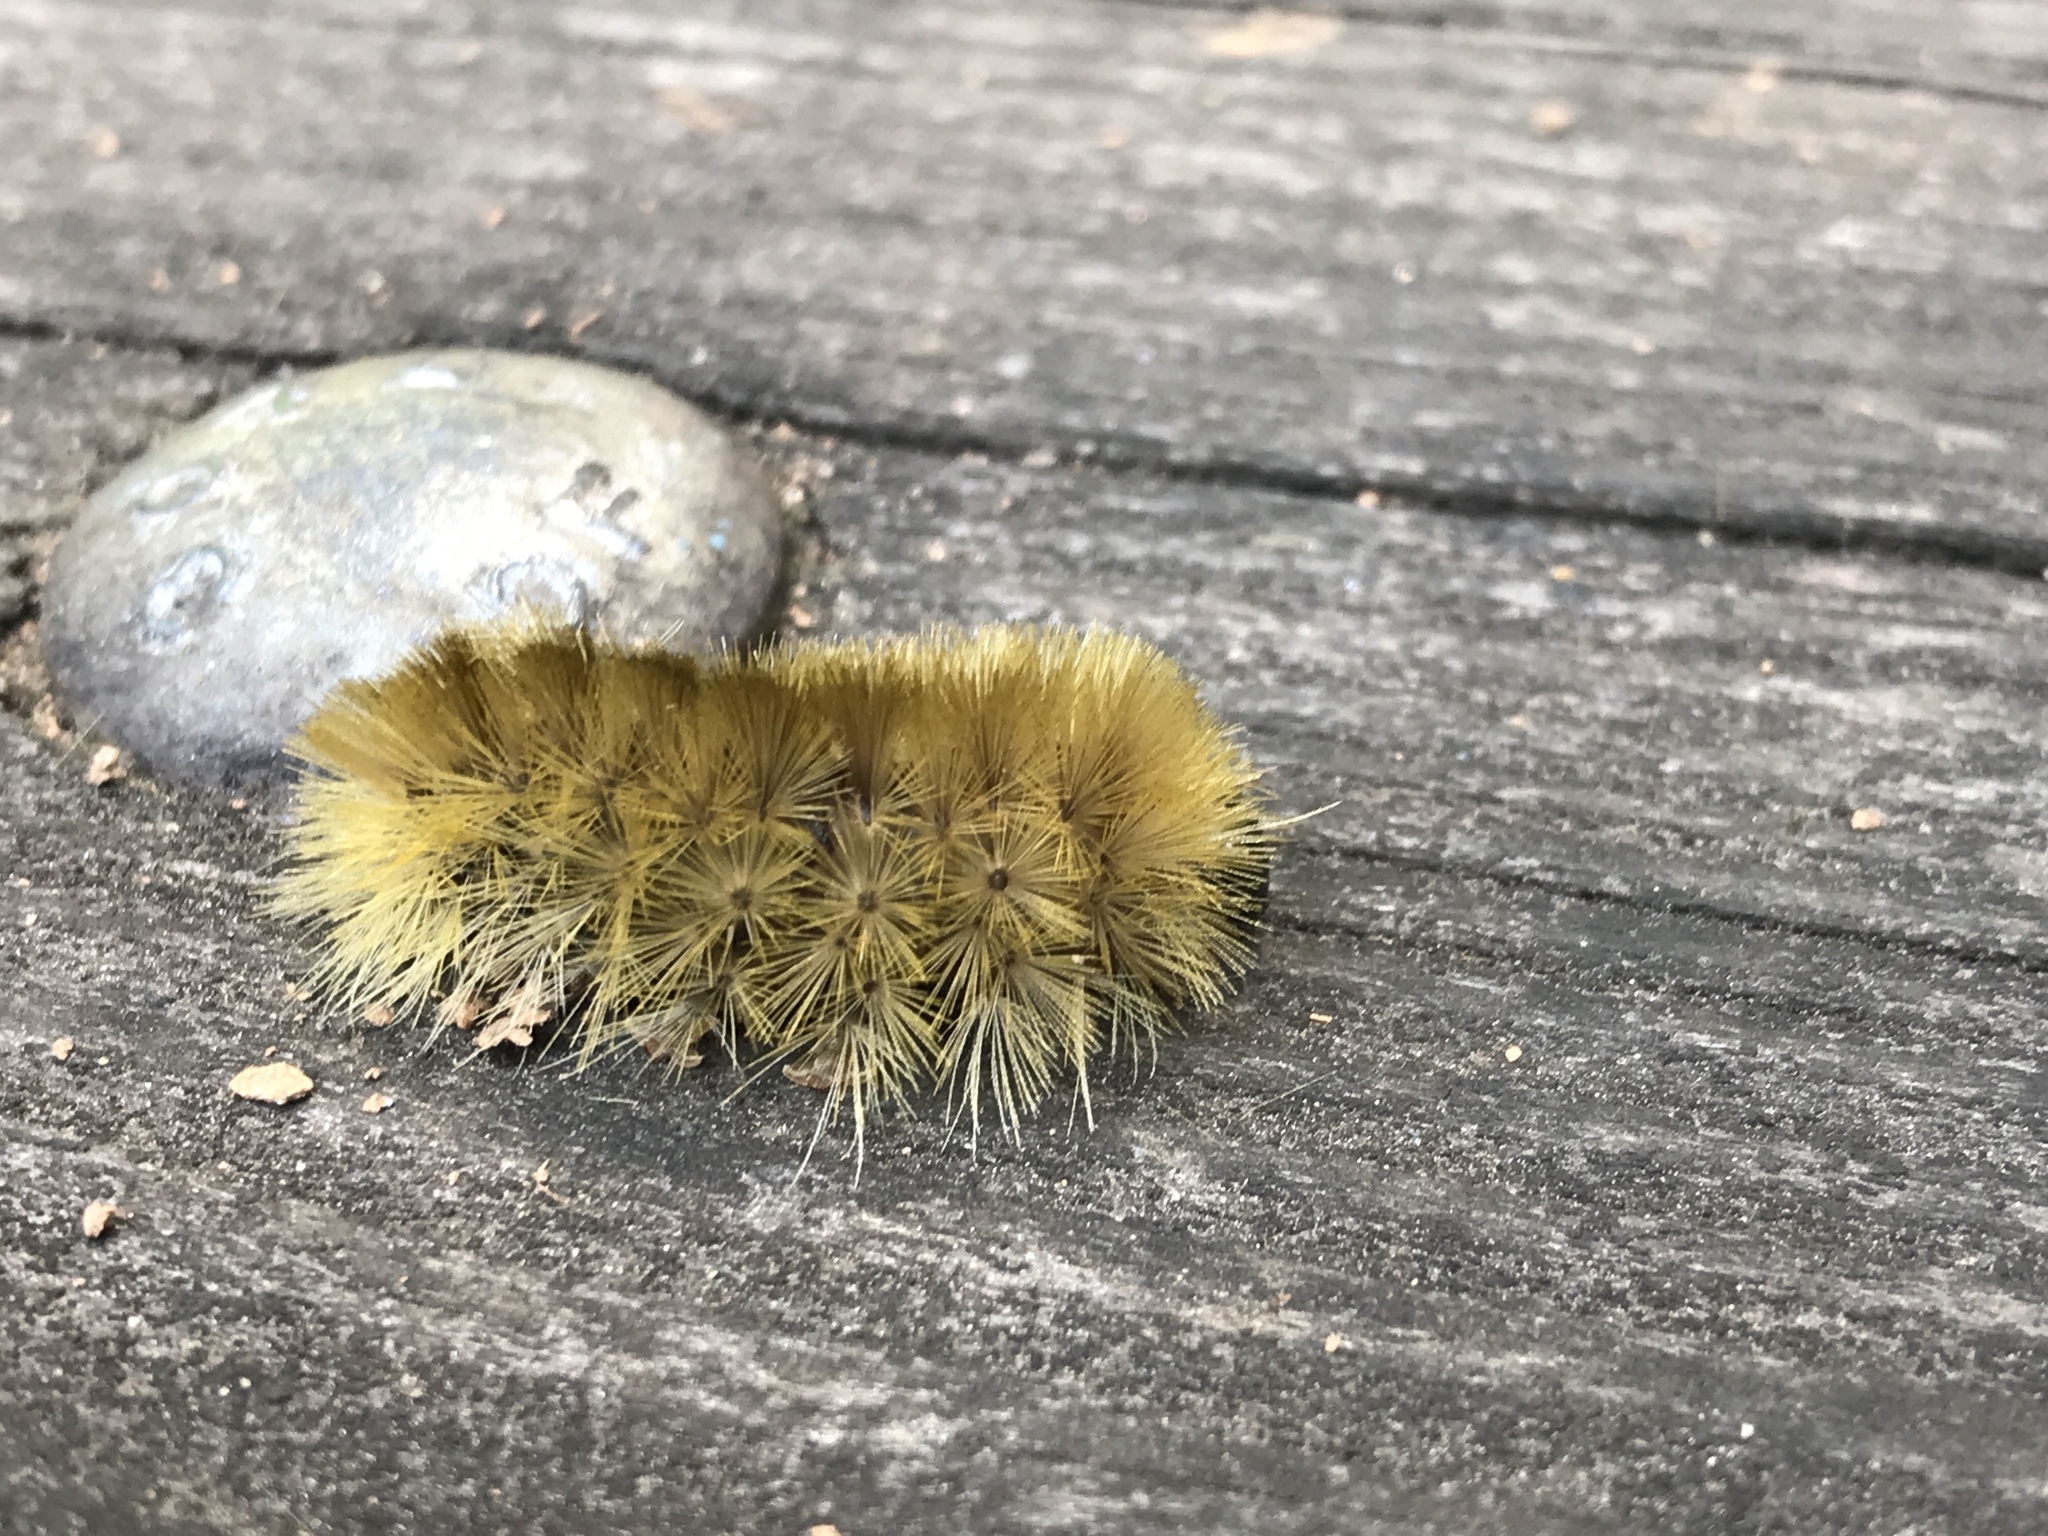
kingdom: Animalia
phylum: Arthropoda
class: Insecta
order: Lepidoptera
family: Erebidae
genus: Halysidota
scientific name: Halysidota tessellaris
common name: Banded tussock moth
